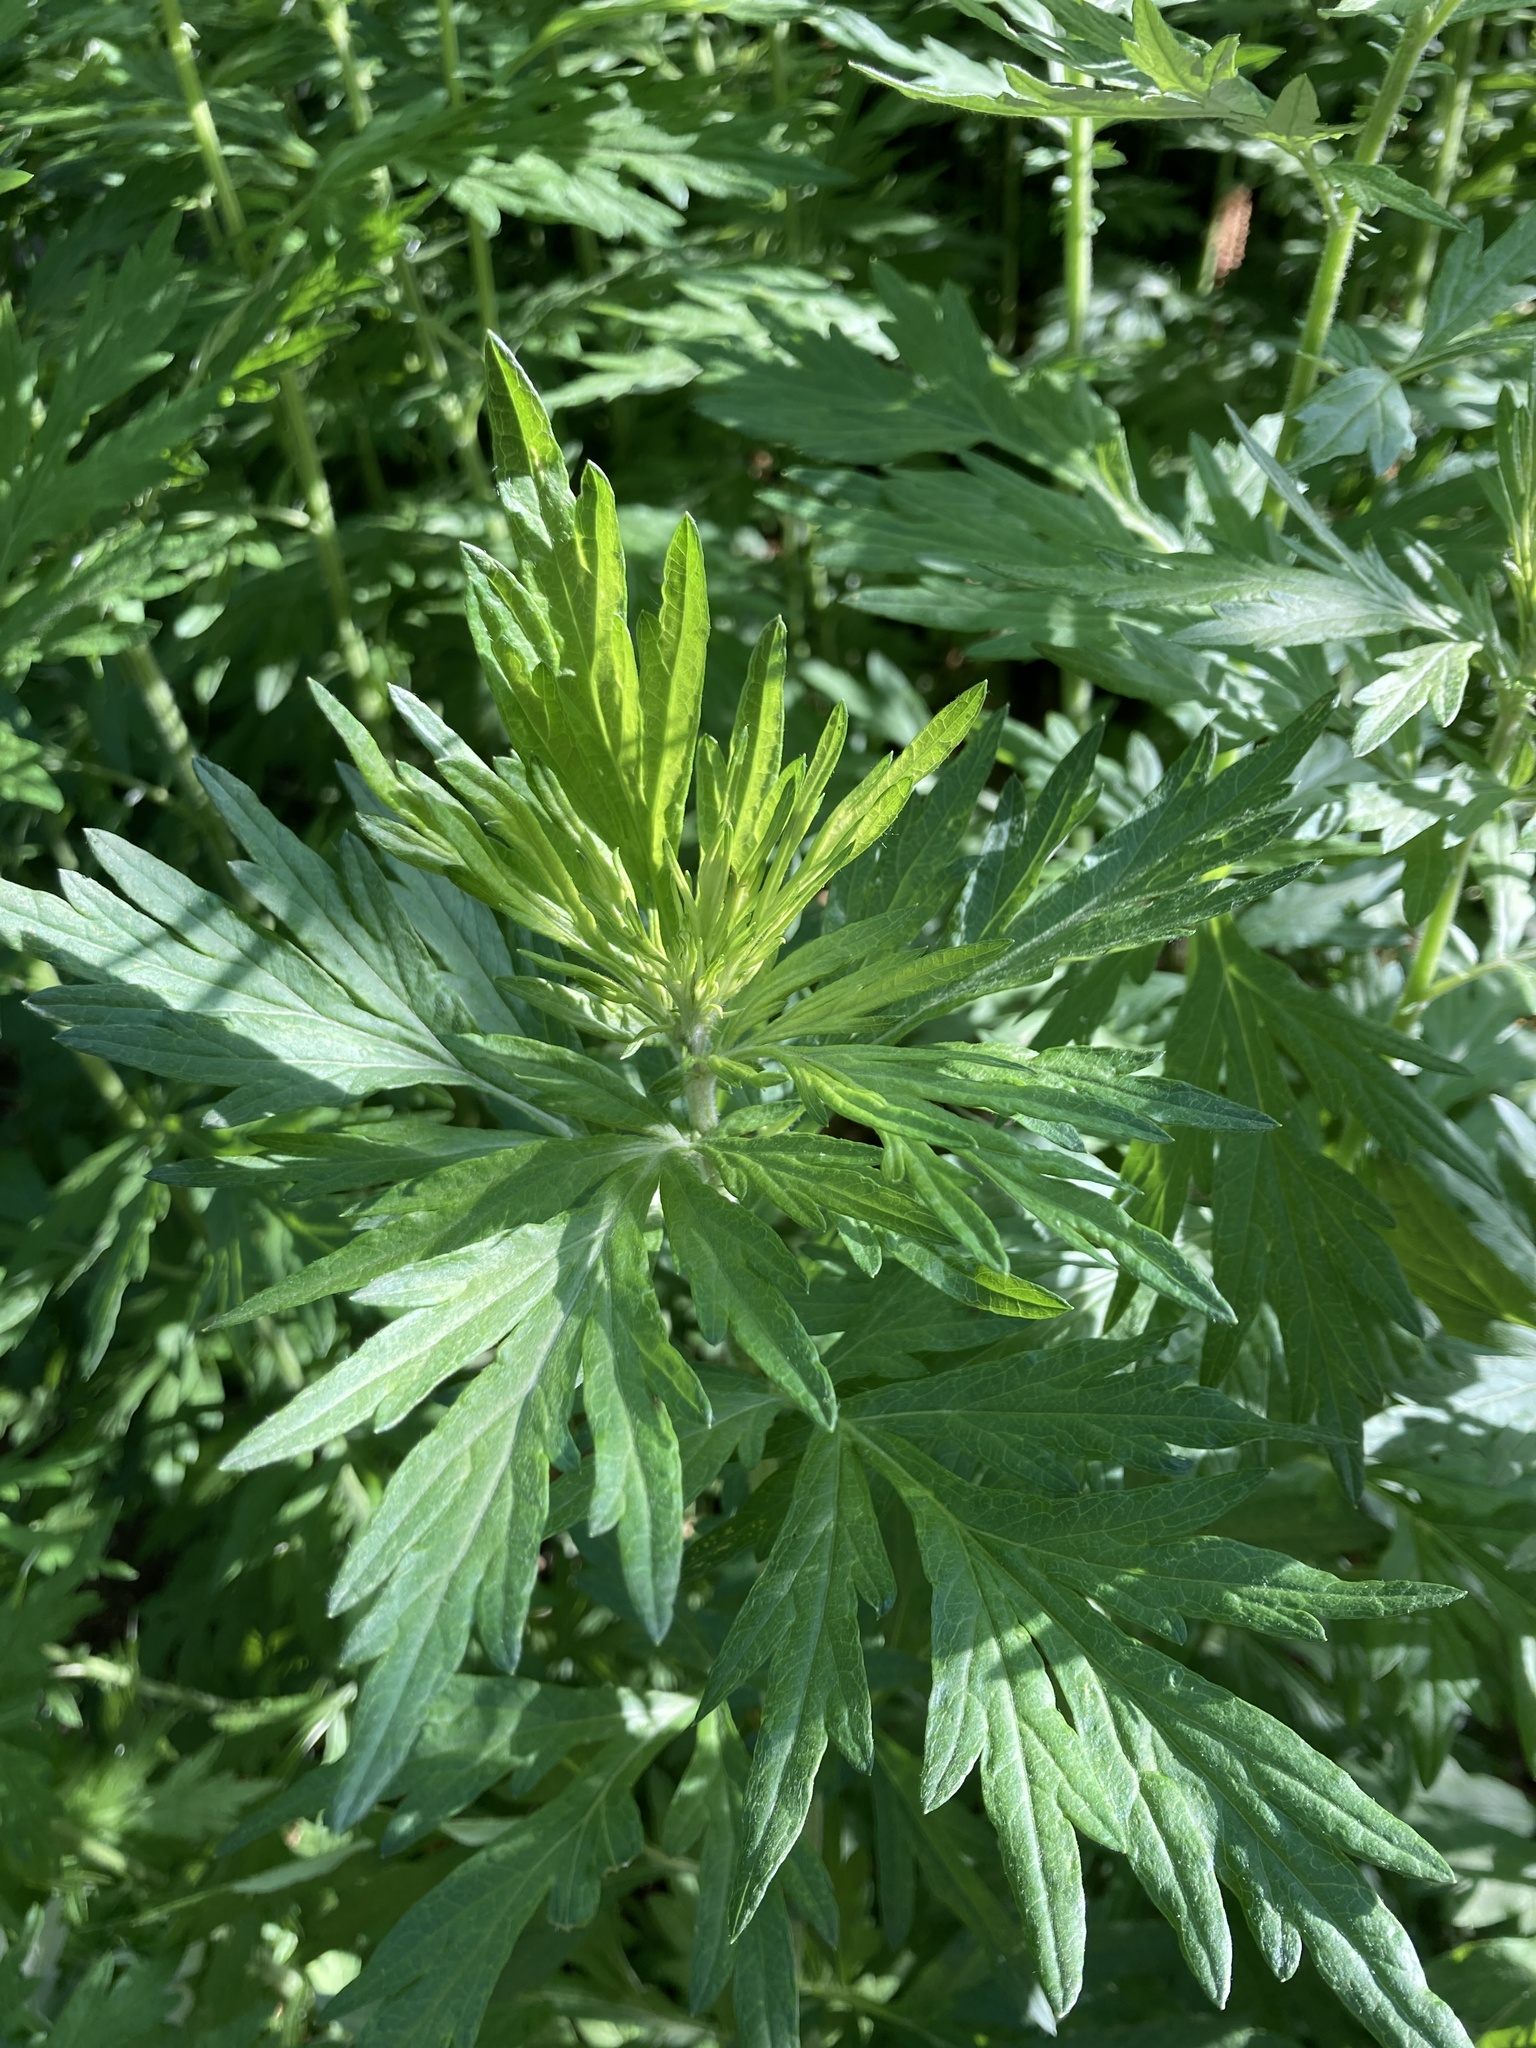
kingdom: Plantae
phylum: Tracheophyta
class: Magnoliopsida
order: Asterales
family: Asteraceae
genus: Artemisia
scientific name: Artemisia vulgaris
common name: Mugwort
